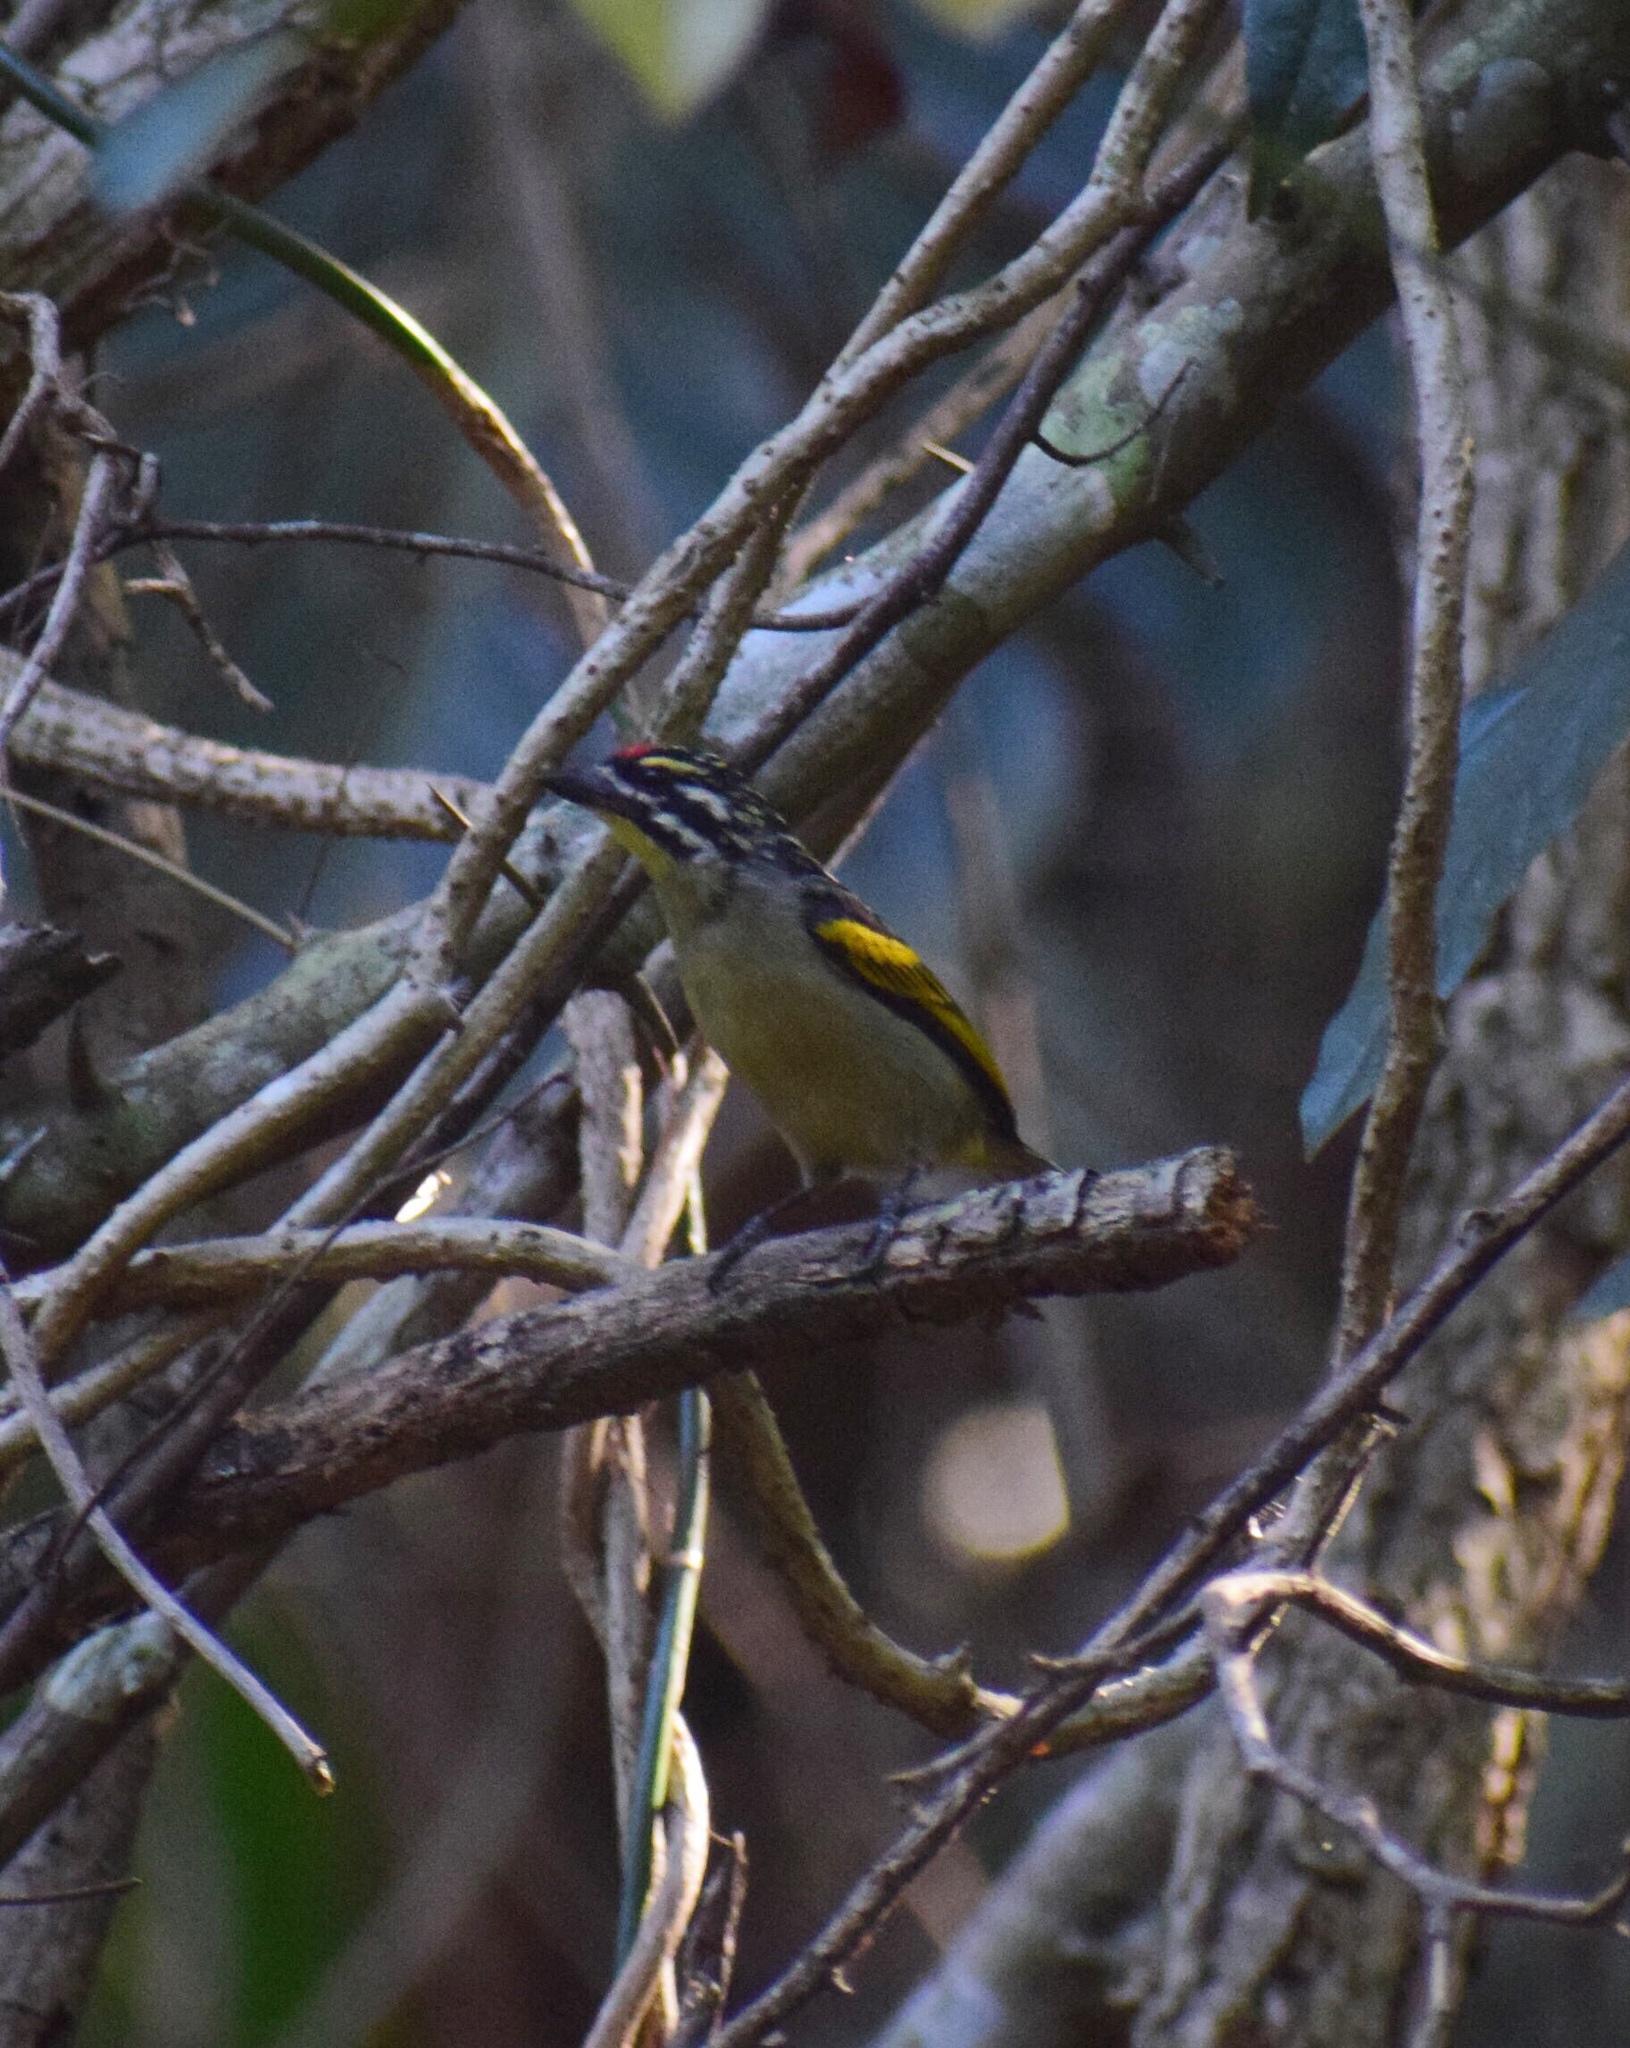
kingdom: Animalia
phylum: Chordata
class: Aves
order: Piciformes
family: Lybiidae
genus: Pogoniulus
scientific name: Pogoniulus pusillus
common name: Red-fronted tinkerbird
